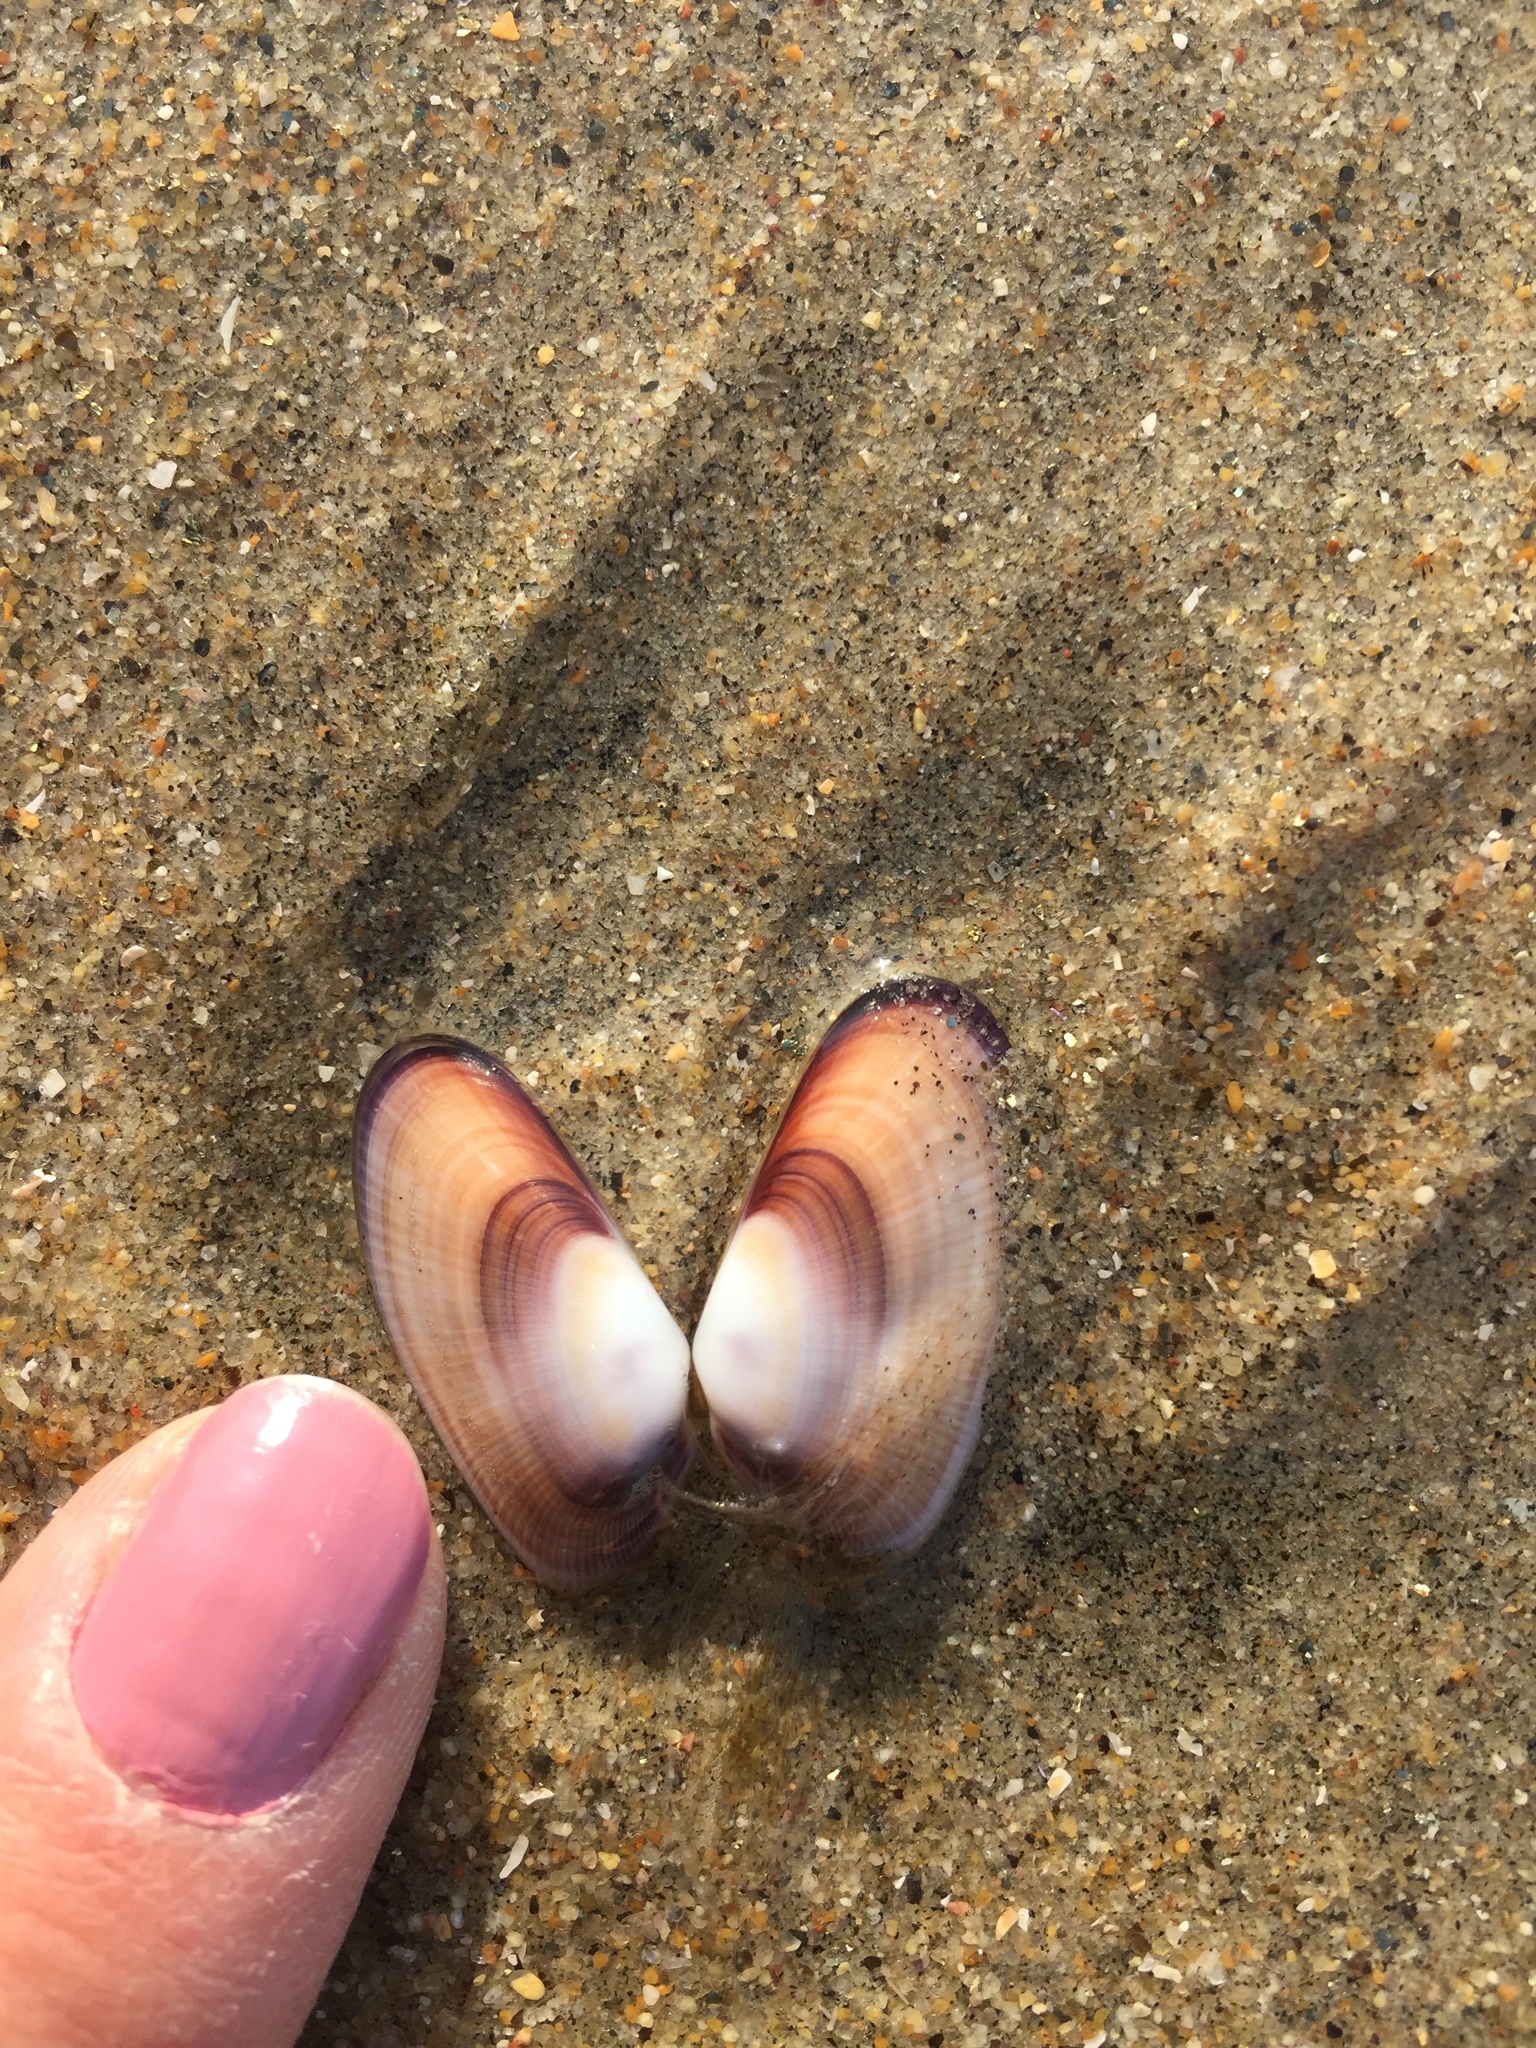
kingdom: Animalia
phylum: Mollusca
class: Bivalvia
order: Cardiida
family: Donacidae
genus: Donax
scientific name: Donax gouldii
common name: Gould beanclam
